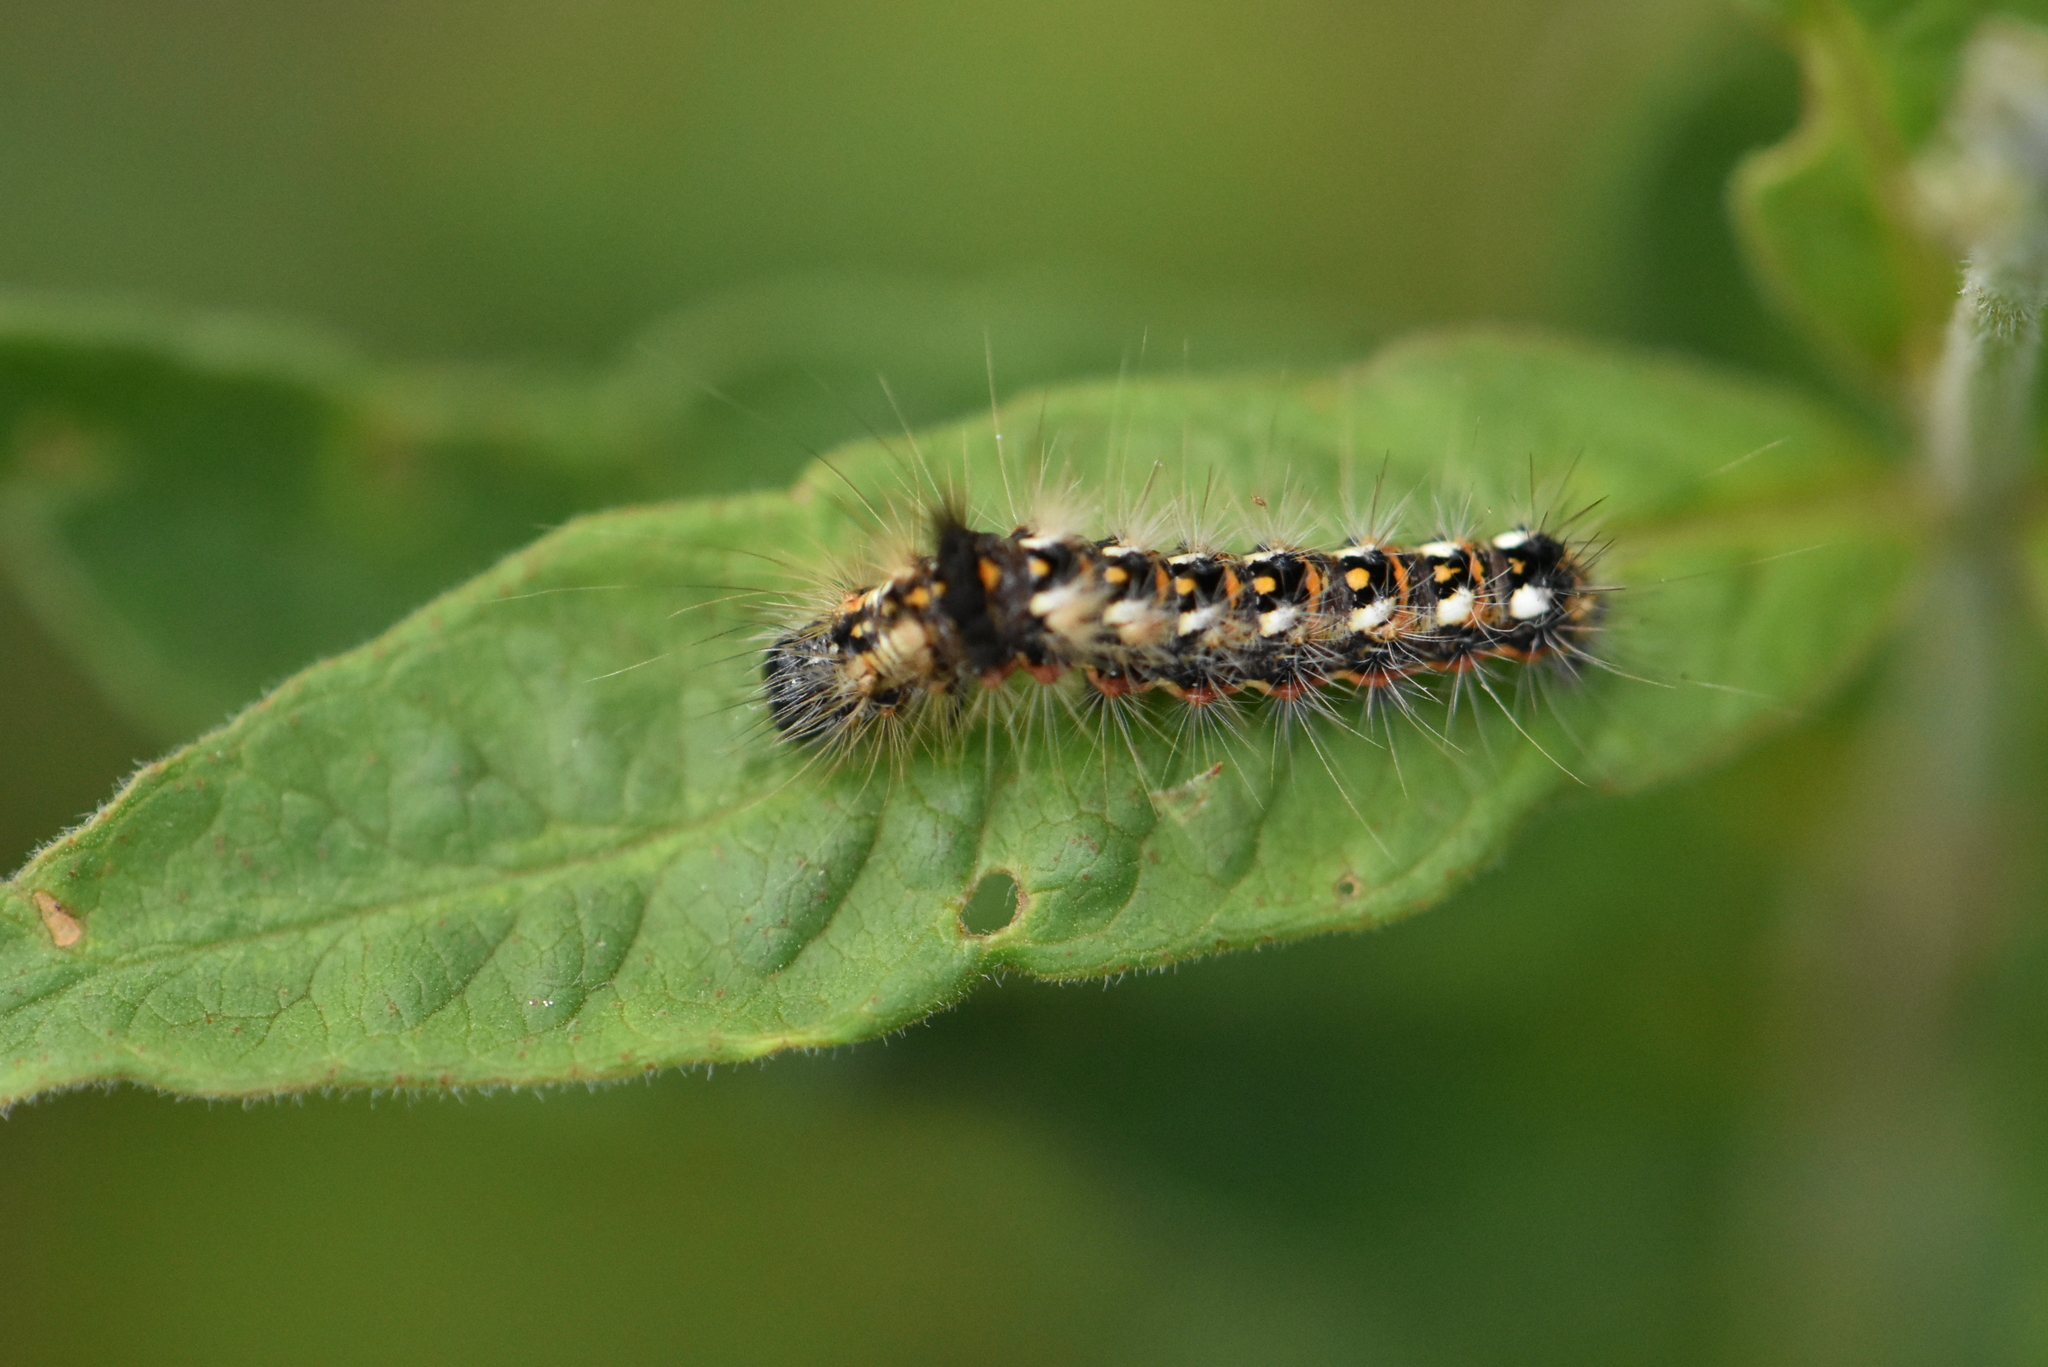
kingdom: Animalia
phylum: Arthropoda
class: Insecta
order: Lepidoptera
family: Noctuidae
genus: Acronicta
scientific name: Acronicta rumicis
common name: Knot grass
